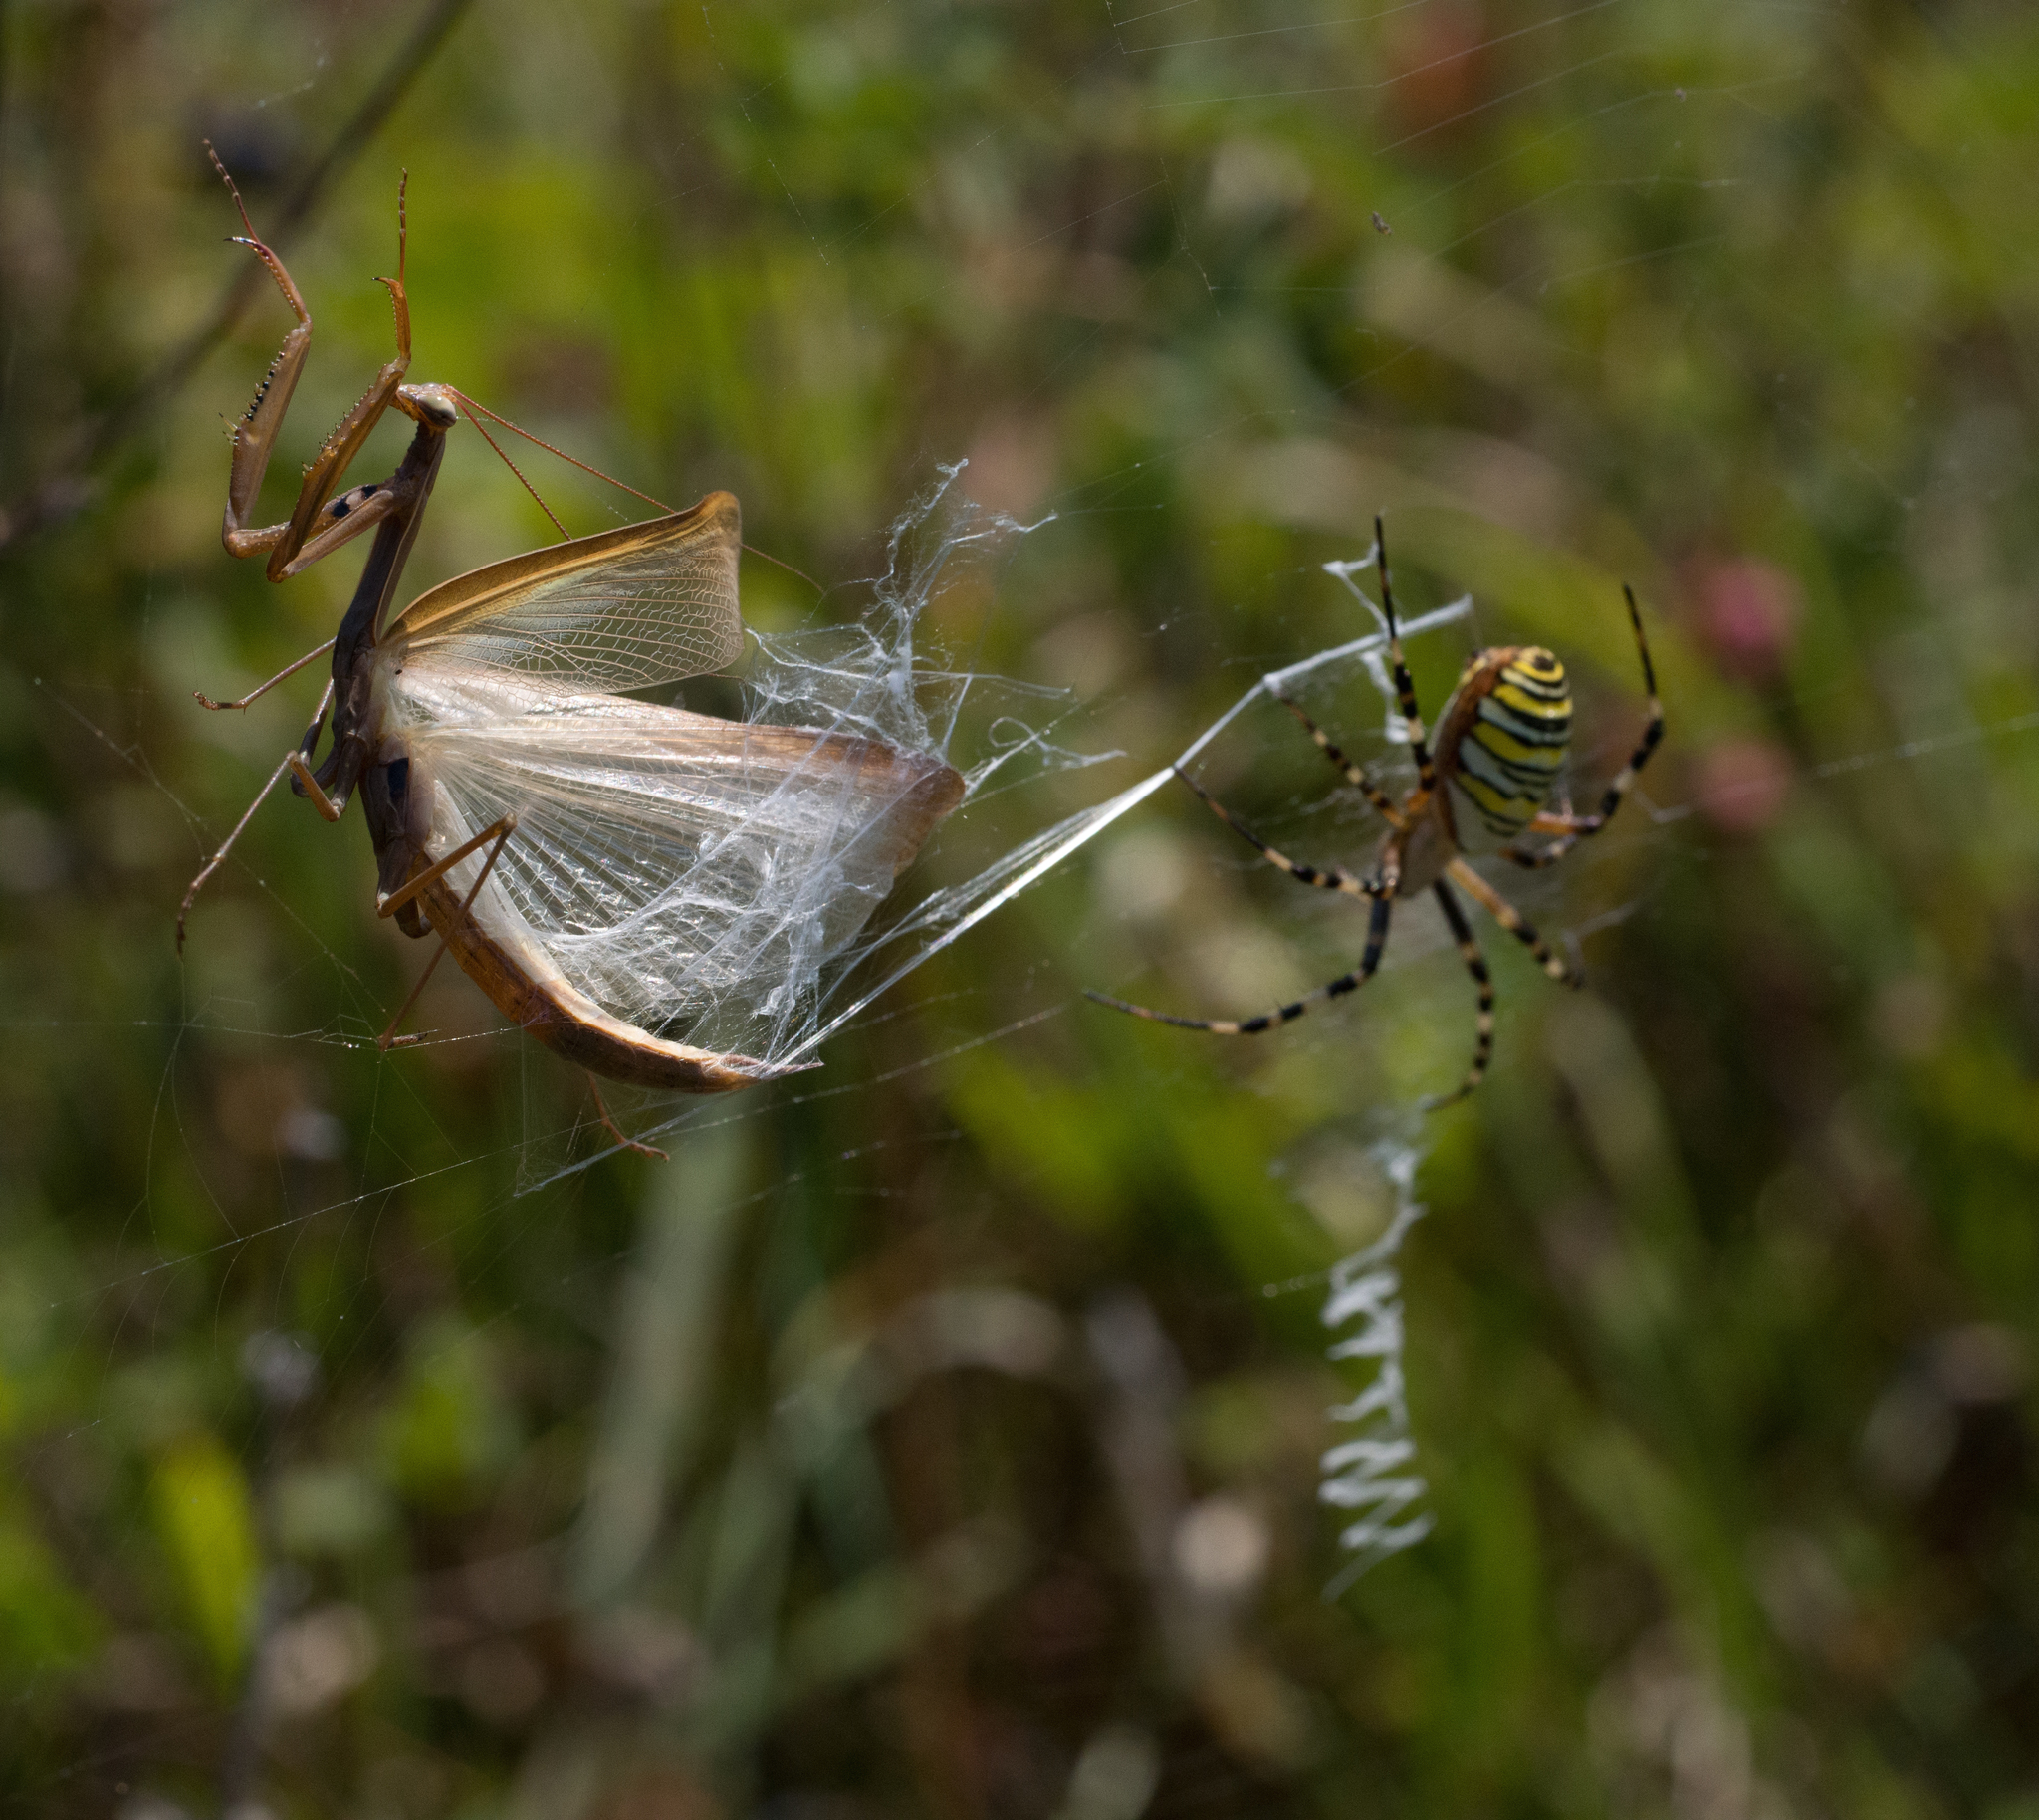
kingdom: Animalia
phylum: Arthropoda
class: Arachnida
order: Araneae
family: Araneidae
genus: Argiope
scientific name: Argiope bruennichi
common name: Wasp spider
